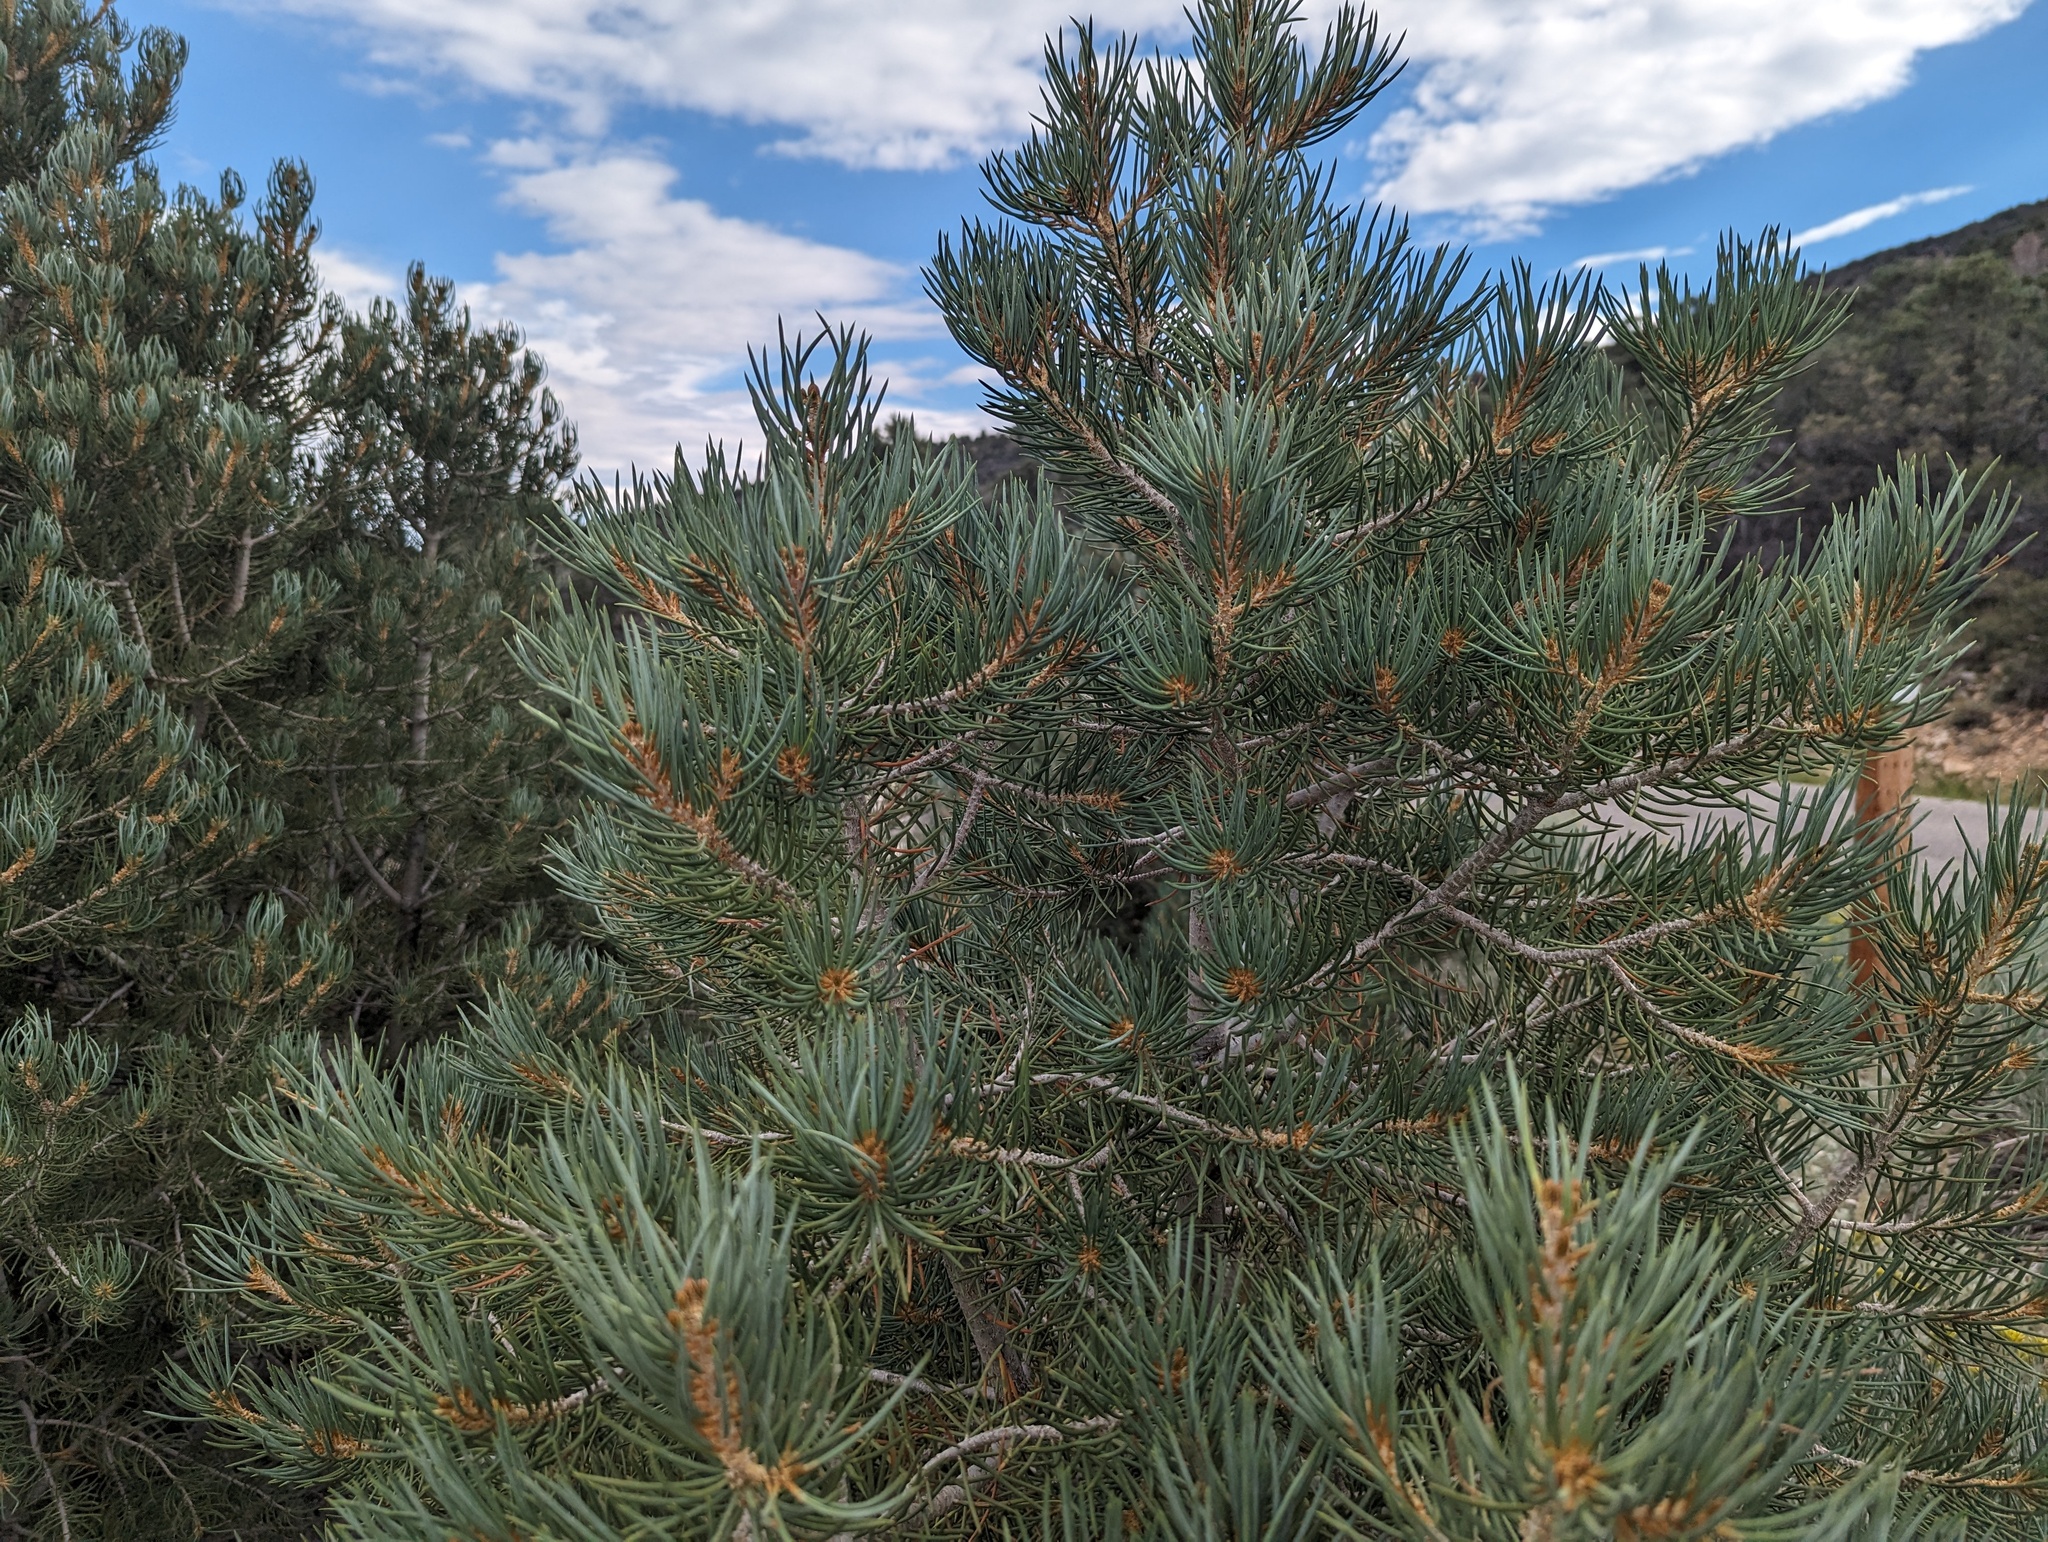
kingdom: Plantae
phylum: Tracheophyta
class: Pinopsida
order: Pinales
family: Pinaceae
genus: Pinus
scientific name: Pinus monophylla
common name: One-leaved nut pine
